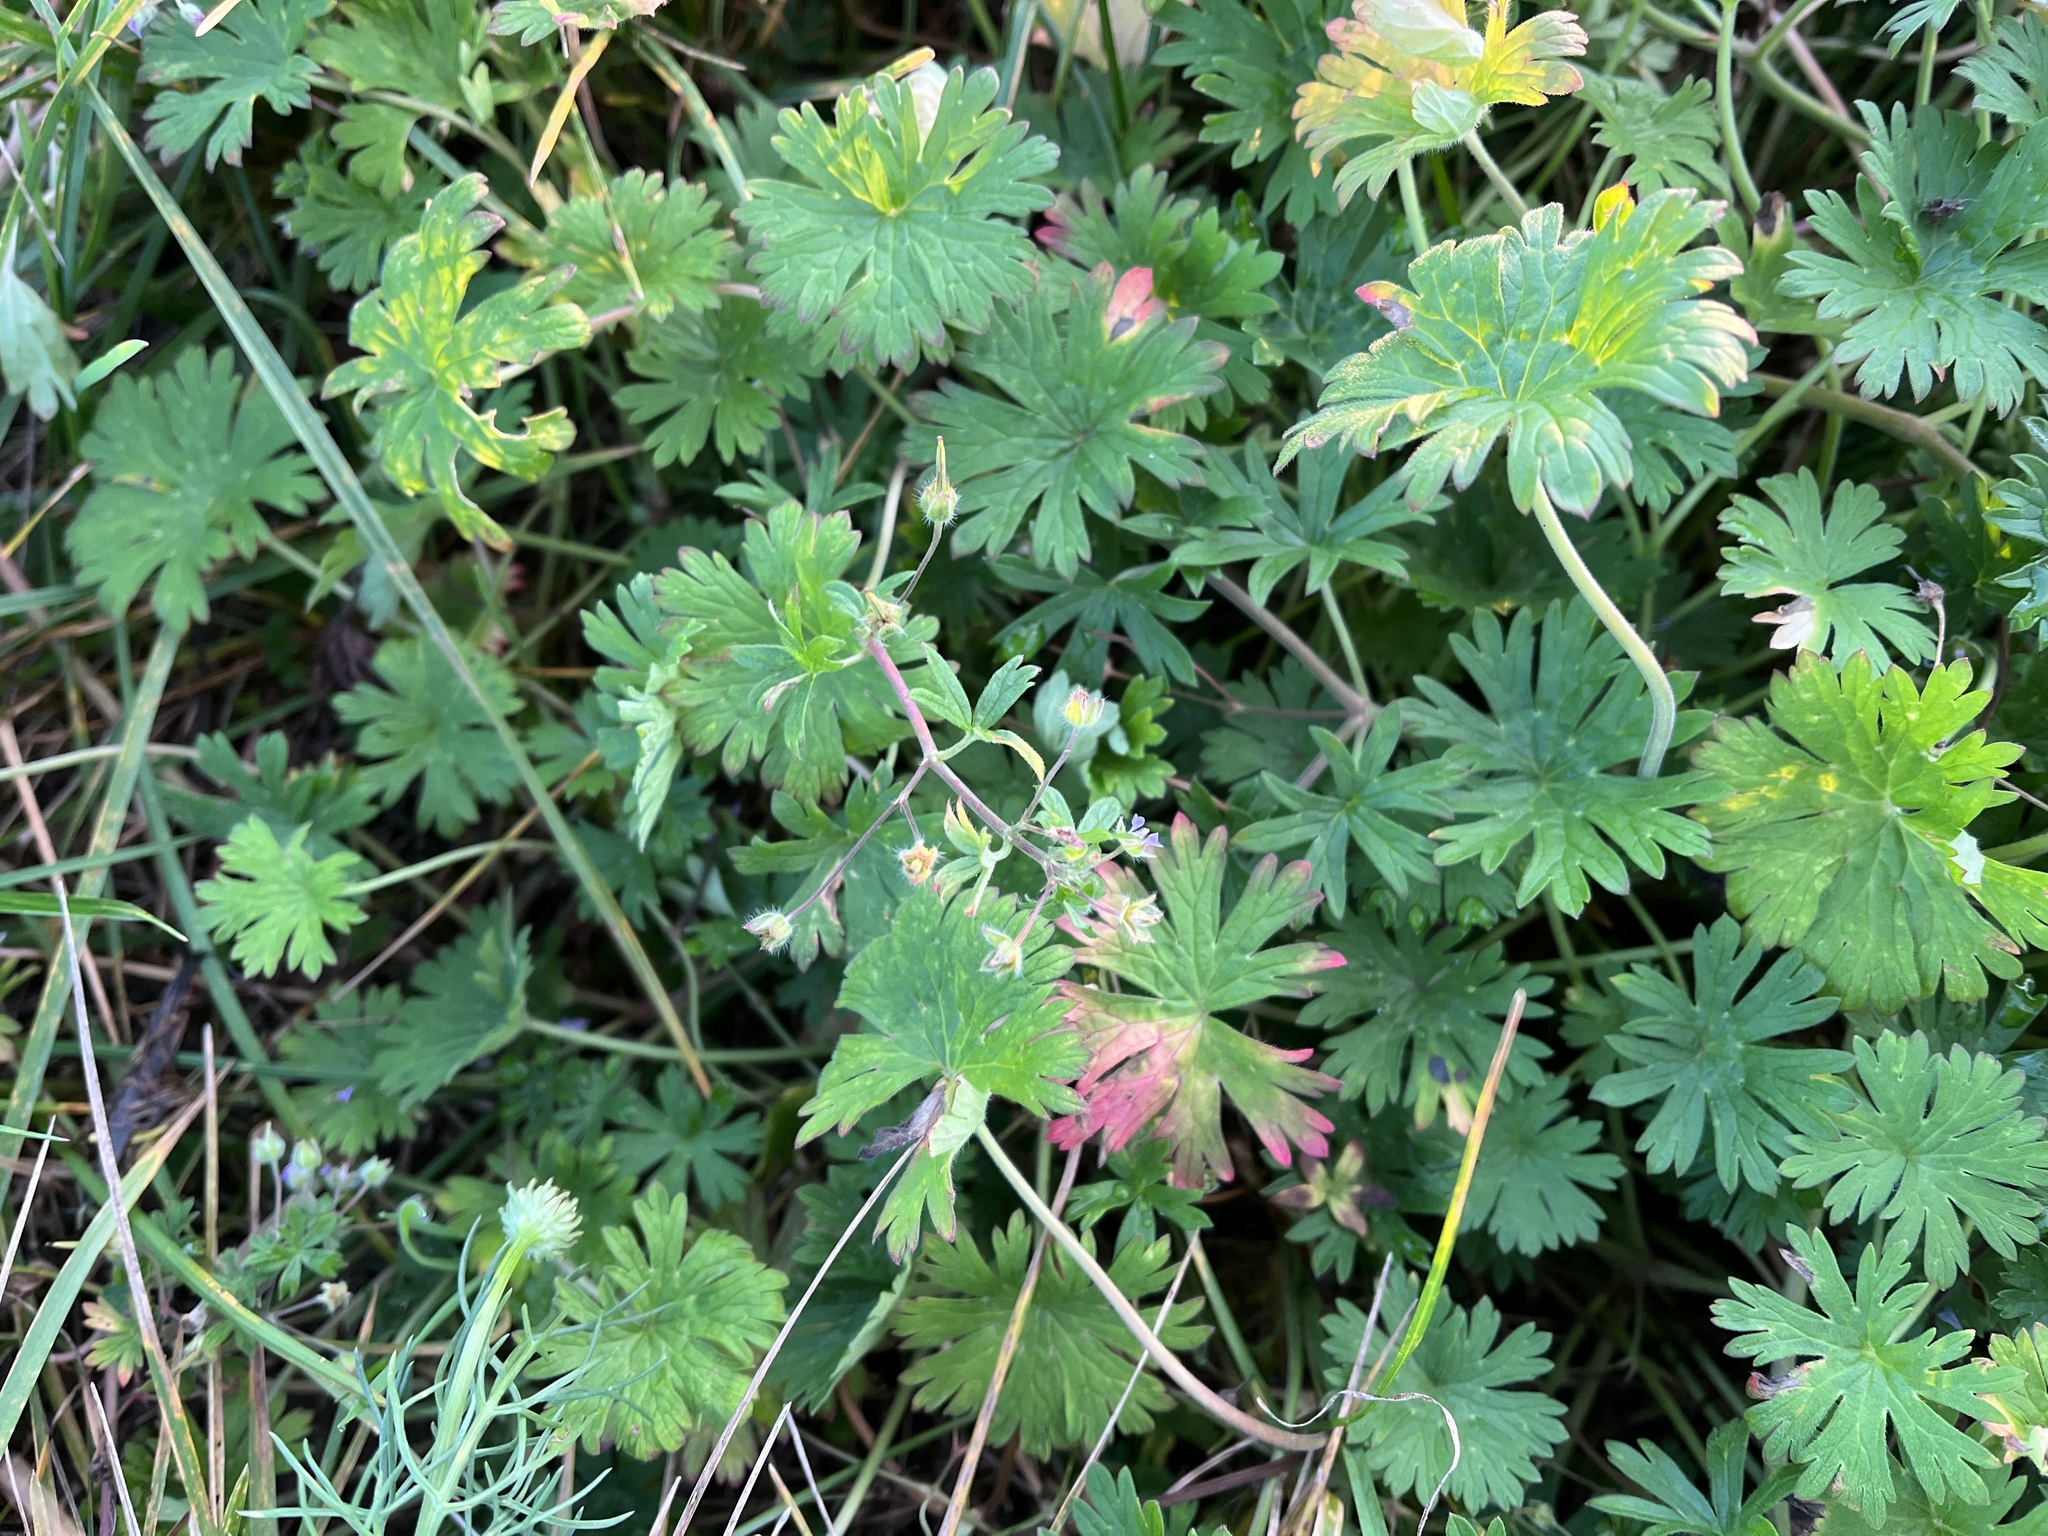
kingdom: Plantae
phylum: Tracheophyta
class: Magnoliopsida
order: Geraniales
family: Geraniaceae
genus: Geranium
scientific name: Geranium pusillum
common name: Small geranium
